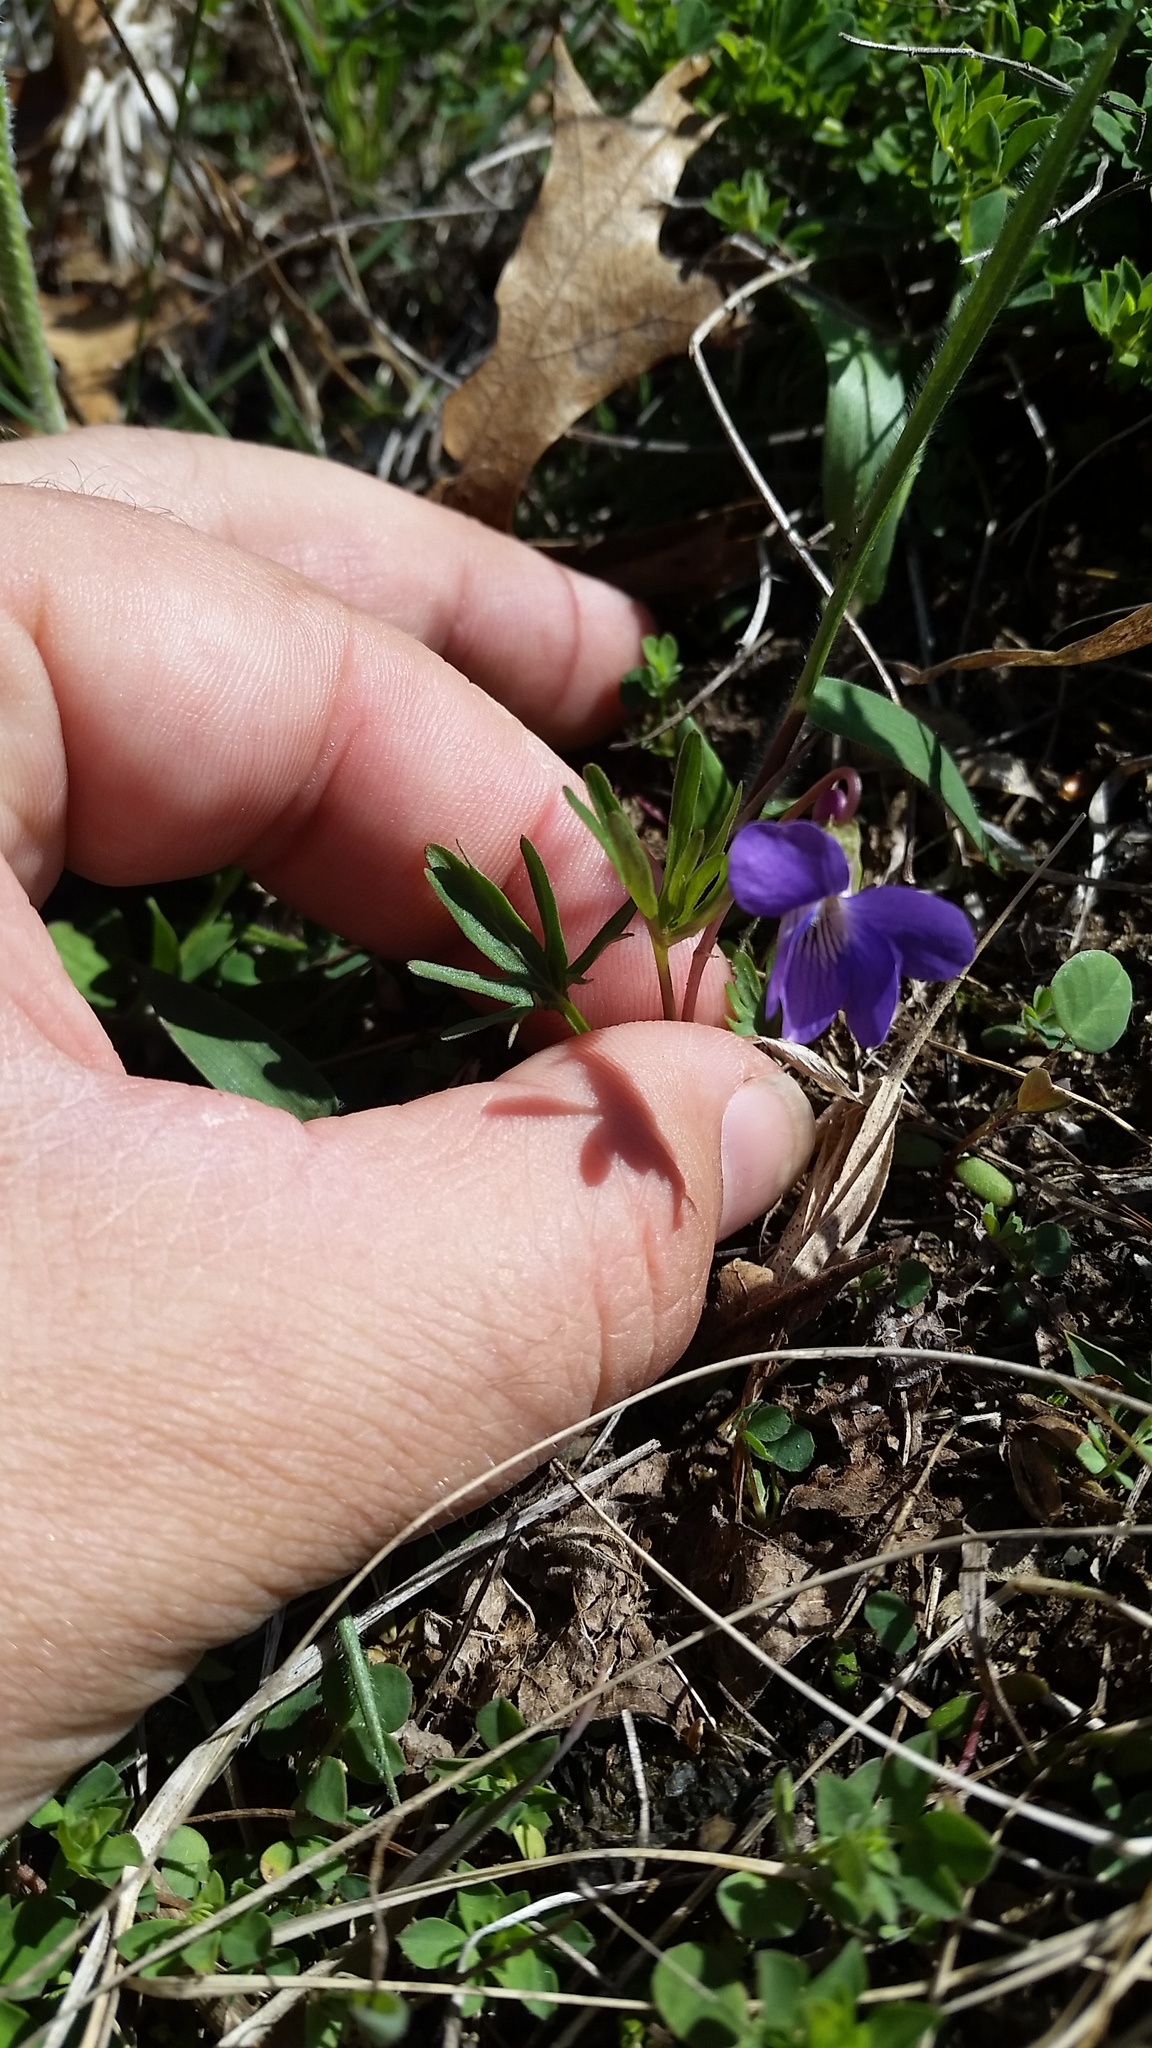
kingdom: Plantae
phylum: Tracheophyta
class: Magnoliopsida
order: Malpighiales
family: Violaceae
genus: Viola
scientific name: Viola pedatifida
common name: Prairie violet
